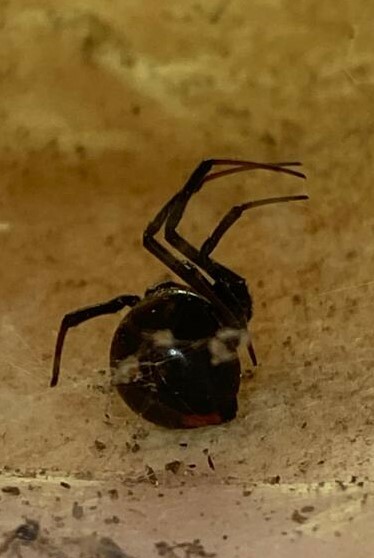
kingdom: Animalia
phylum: Arthropoda
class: Arachnida
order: Araneae
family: Theridiidae
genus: Latrodectus
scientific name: Latrodectus mactans
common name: Cobweb spiders
